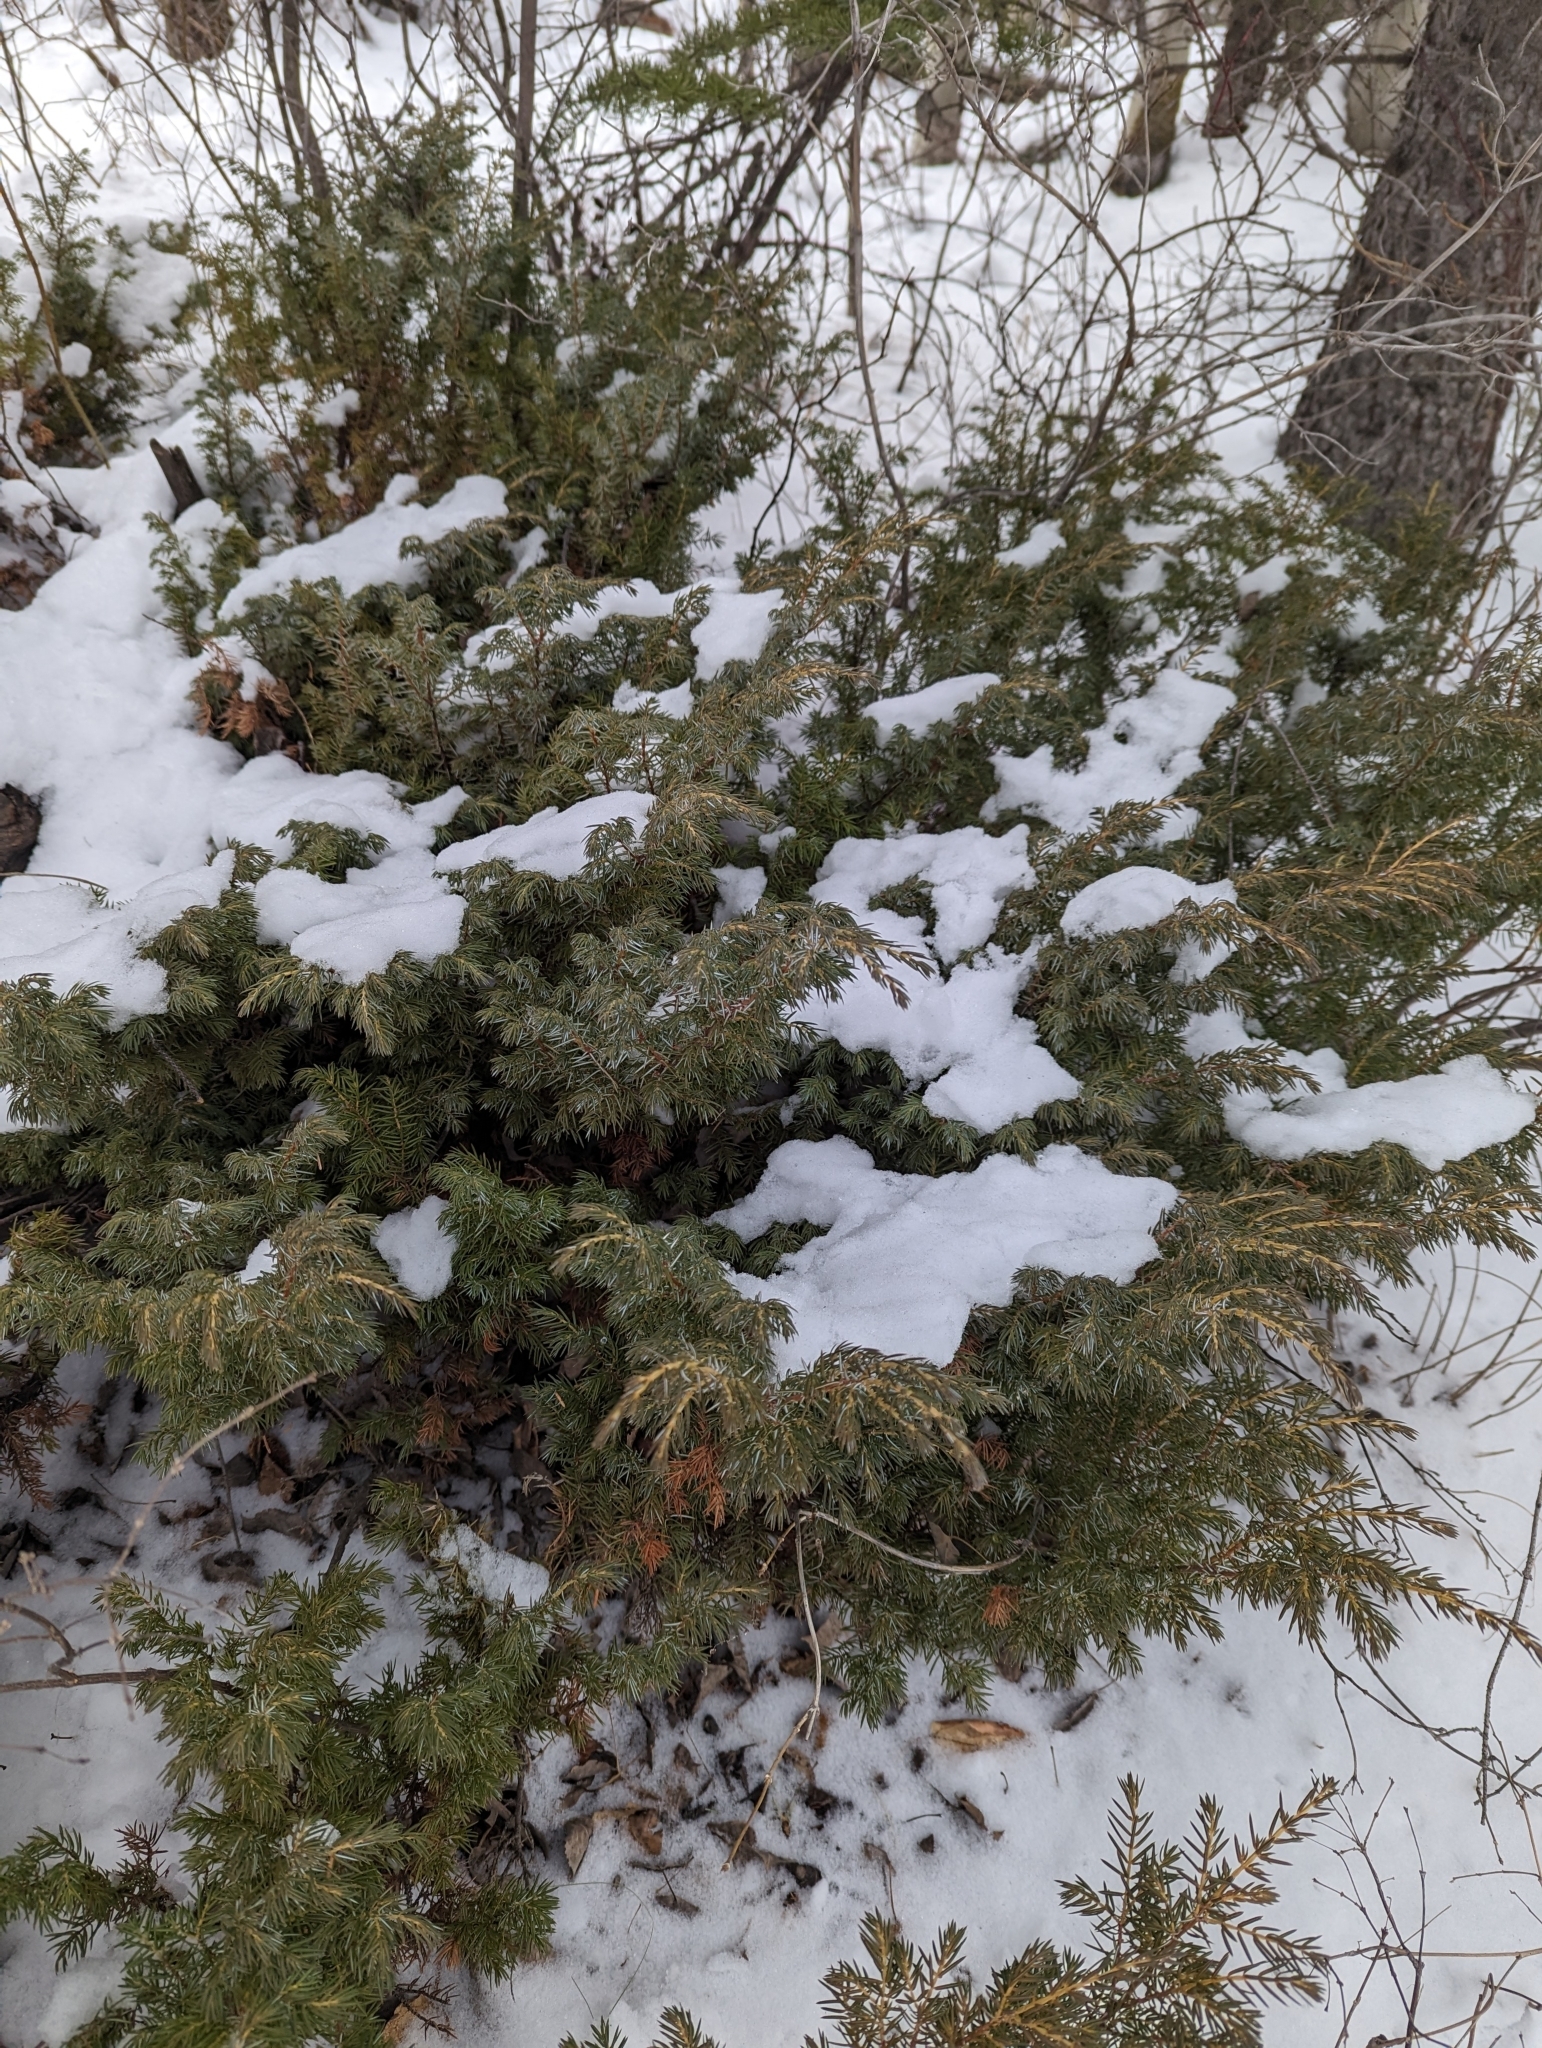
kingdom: Plantae
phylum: Tracheophyta
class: Pinopsida
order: Pinales
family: Cupressaceae
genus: Juniperus
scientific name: Juniperus communis
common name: Common juniper
